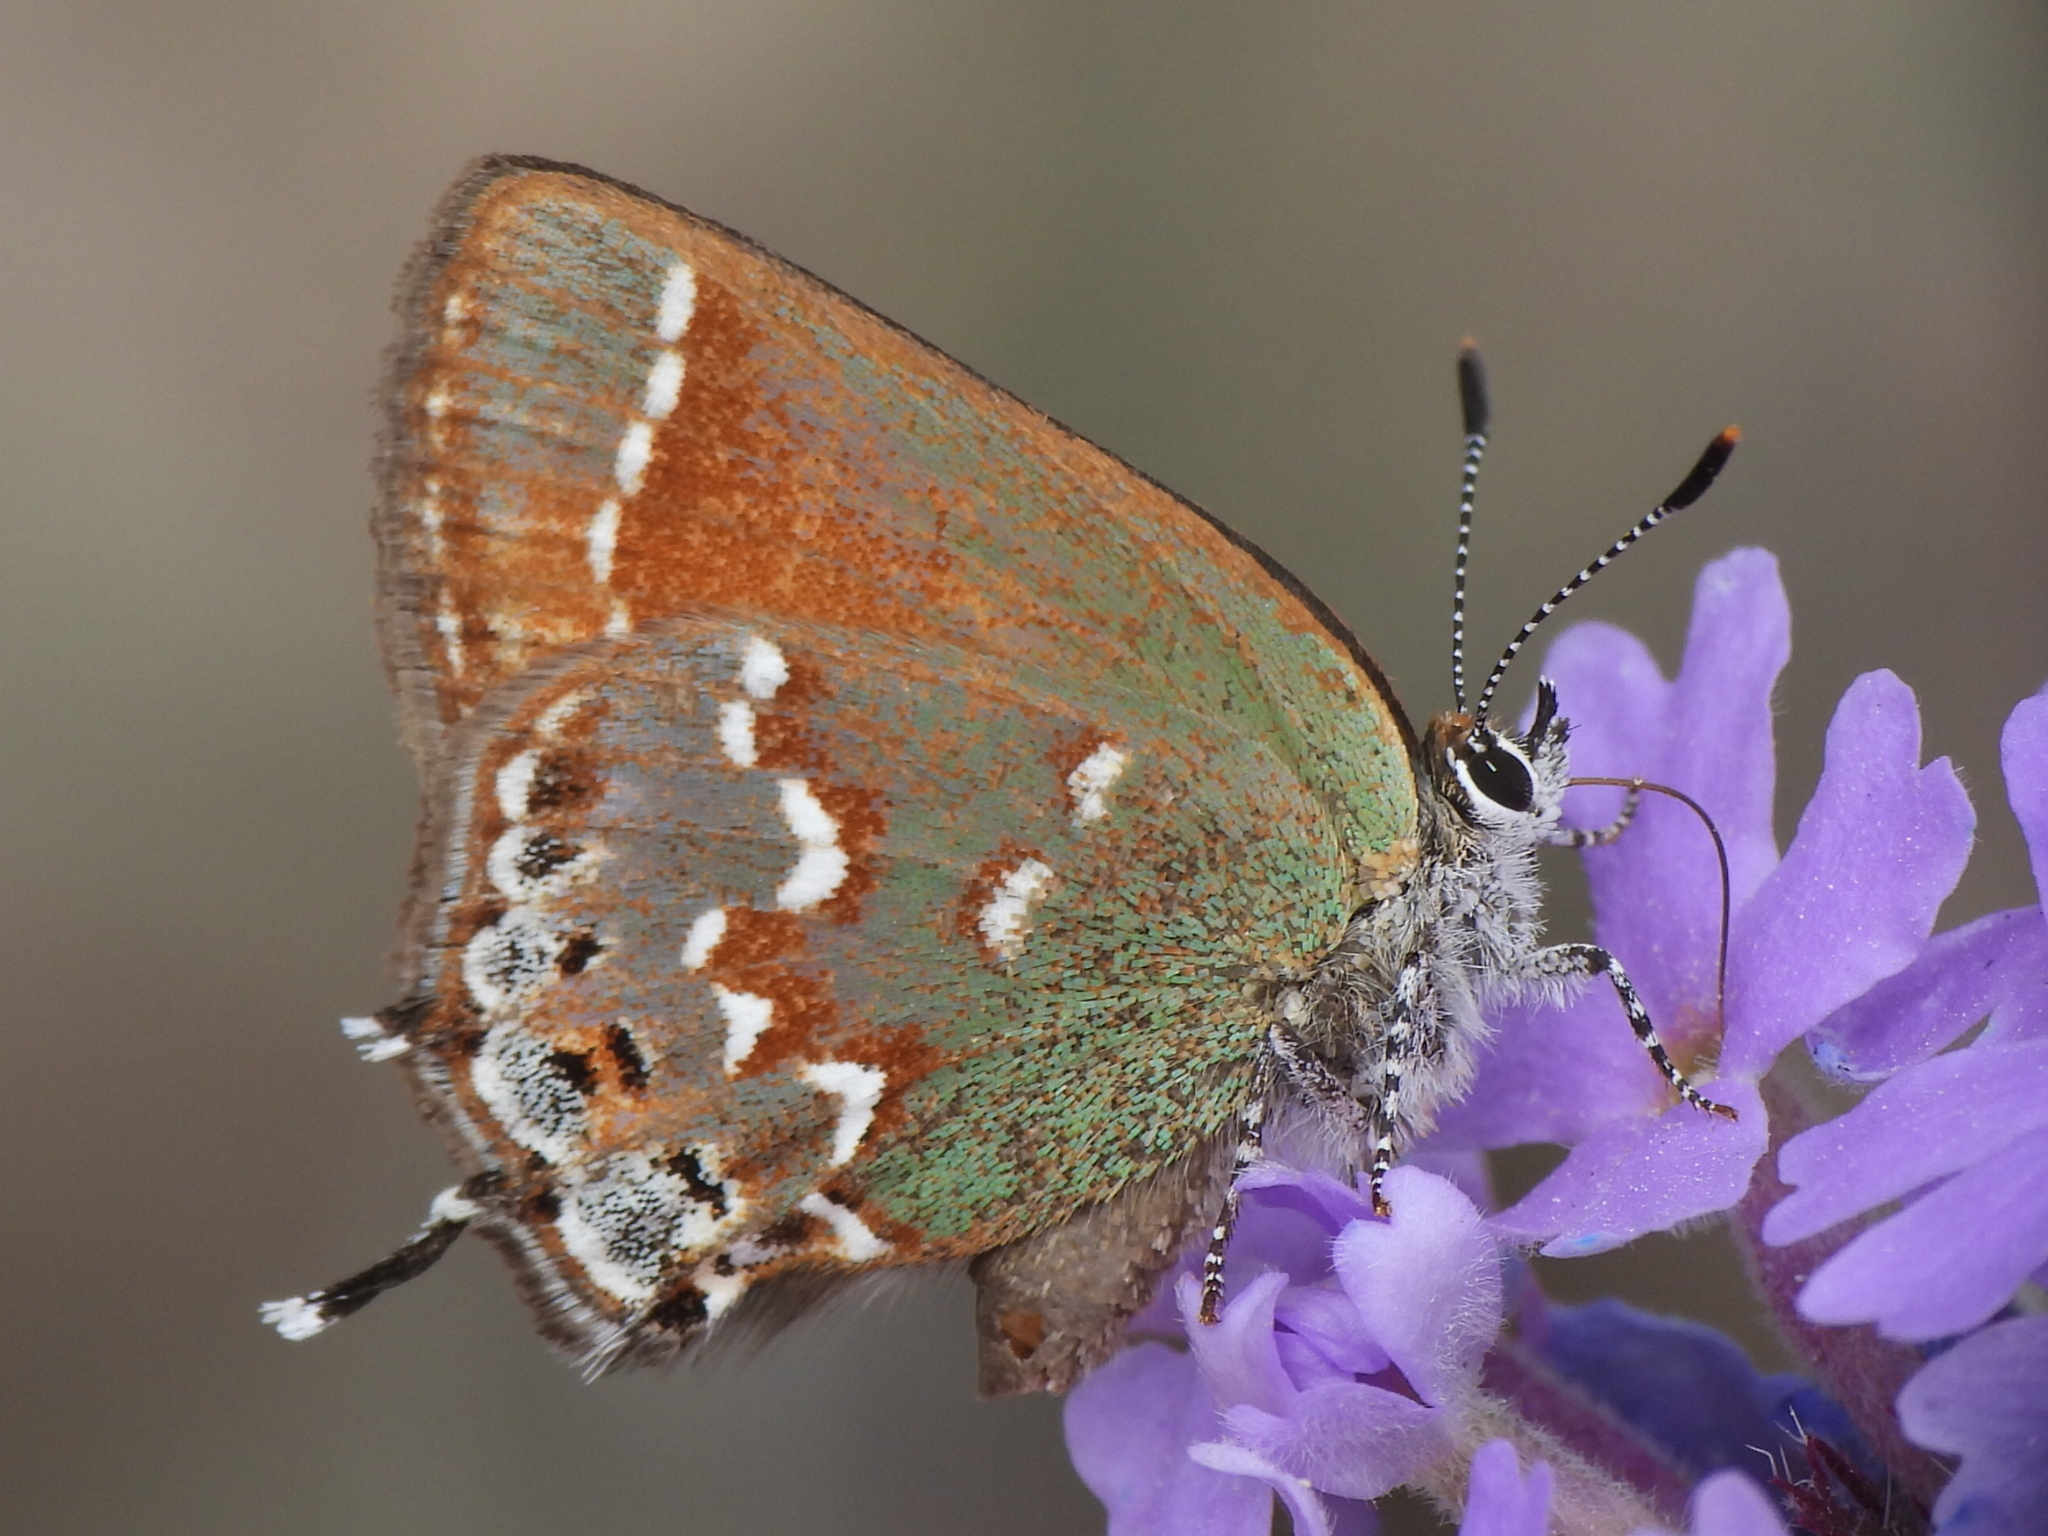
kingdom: Animalia
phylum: Arthropoda
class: Insecta
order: Lepidoptera
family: Lycaenidae
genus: Mitoura
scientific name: Mitoura gryneus
